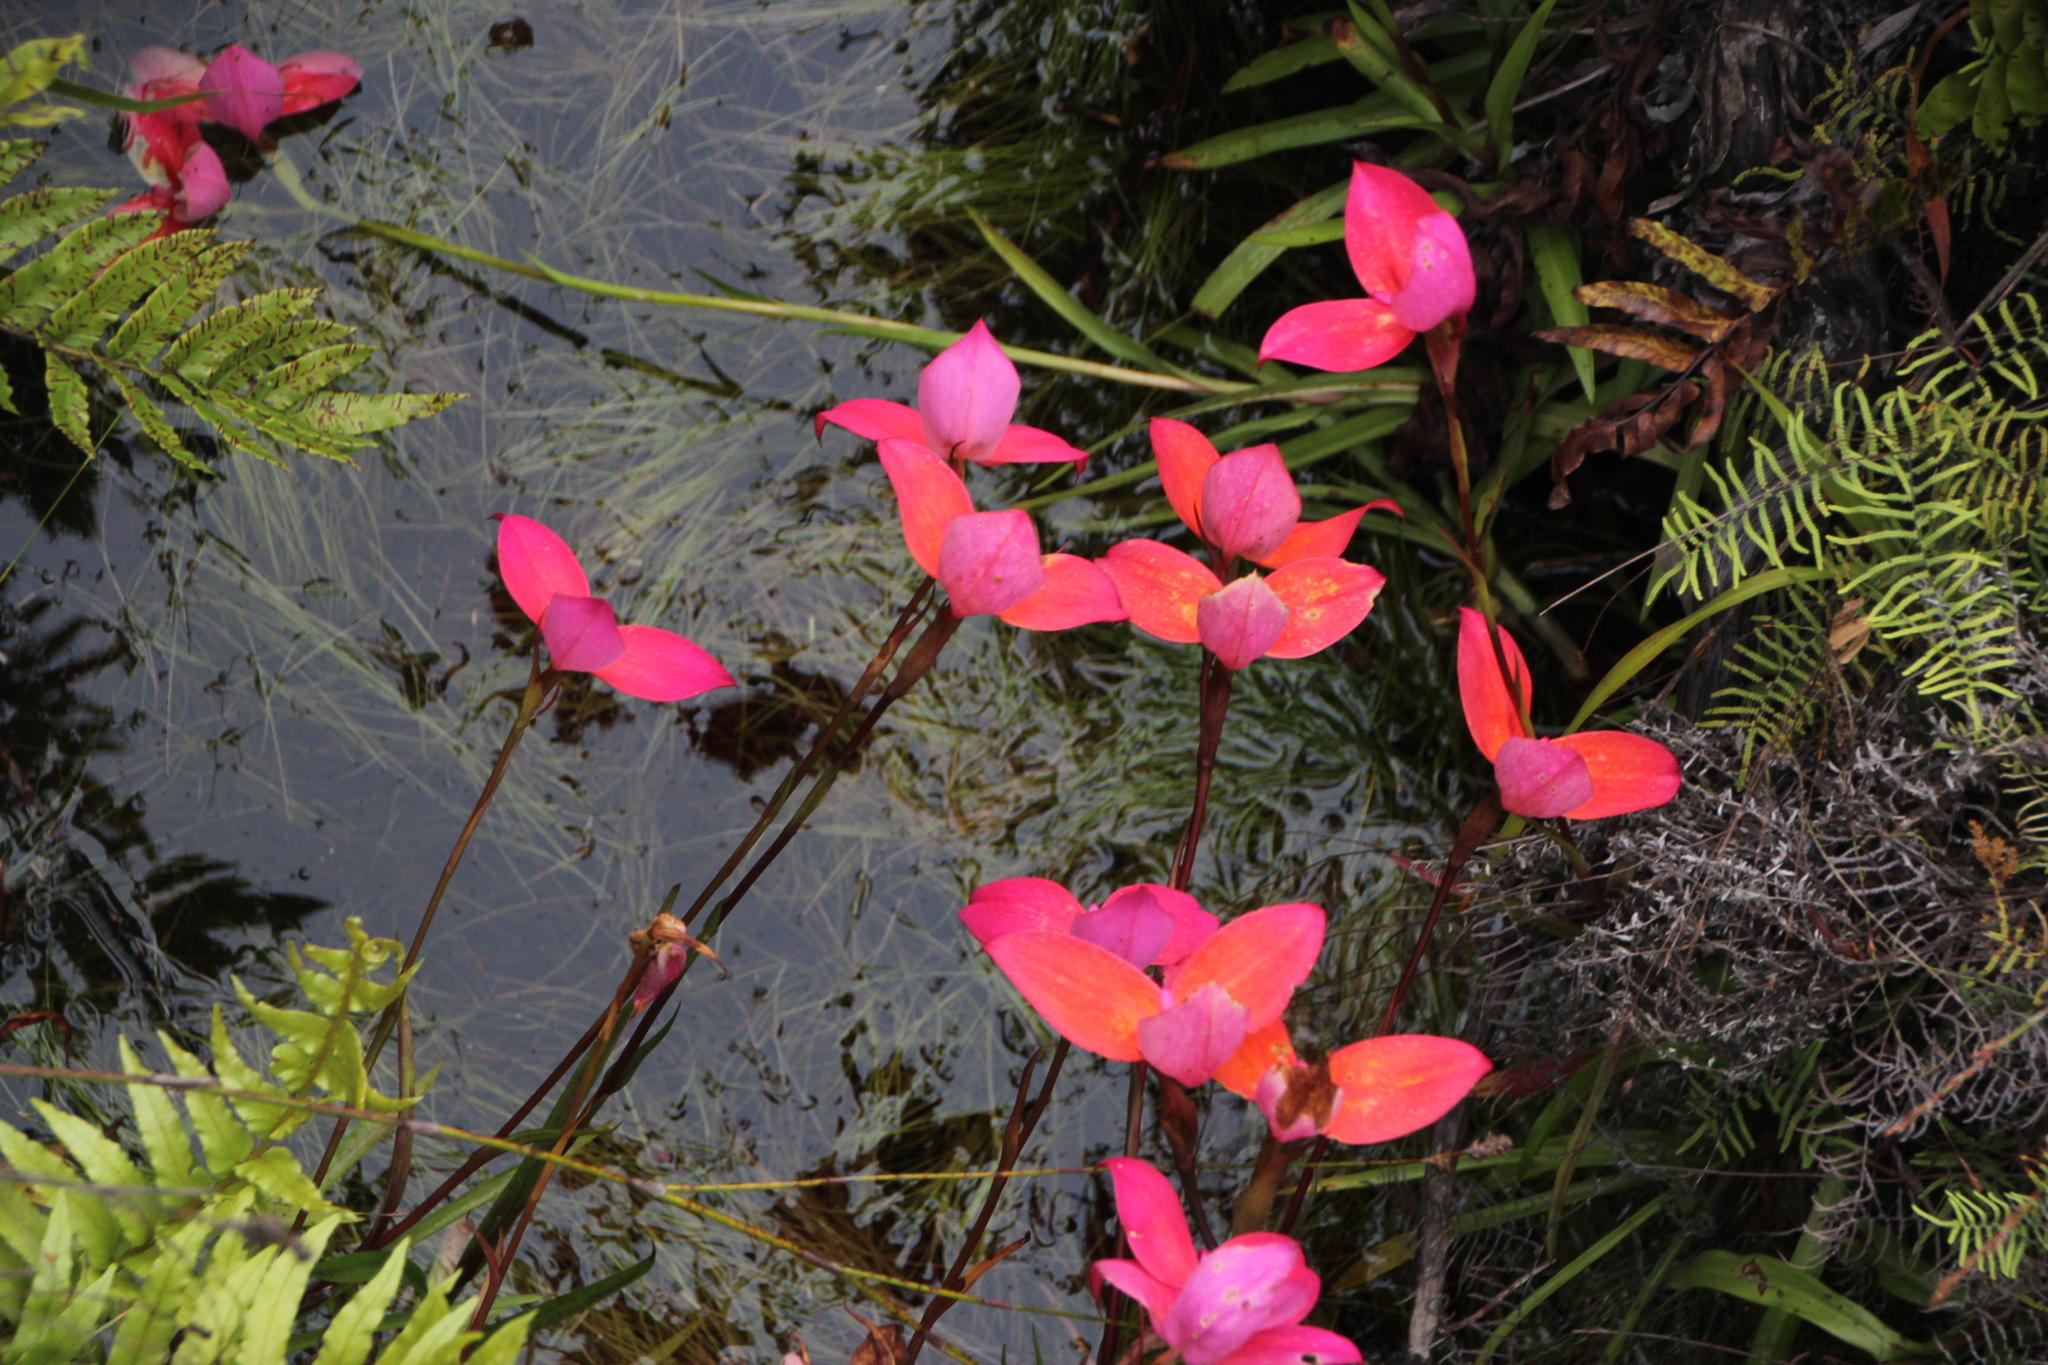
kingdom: Plantae
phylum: Tracheophyta
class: Liliopsida
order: Asparagales
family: Orchidaceae
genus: Disa
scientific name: Disa uniflora
